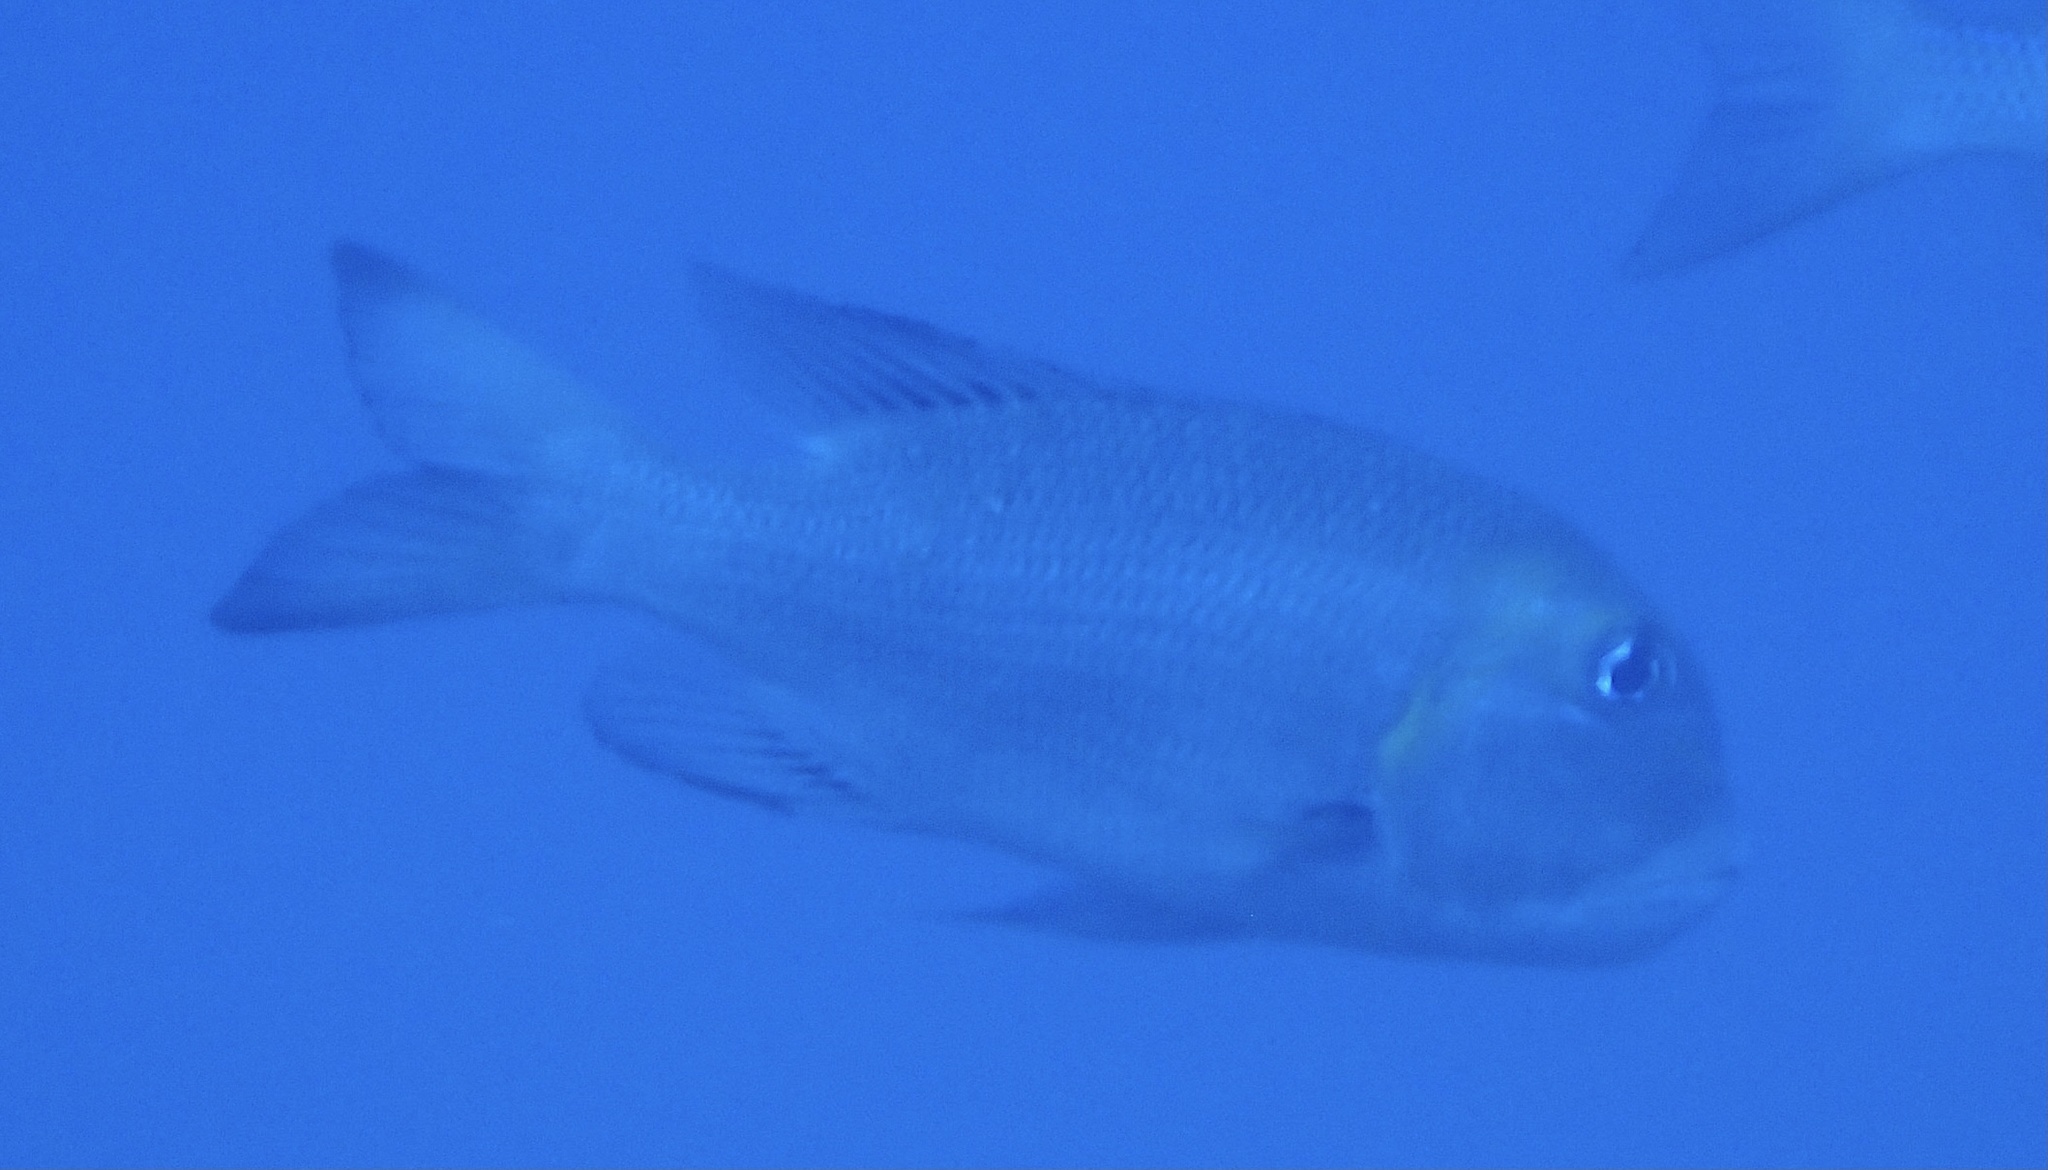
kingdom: Animalia
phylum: Chordata
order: Perciformes
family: Lethrinidae
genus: Monotaxis
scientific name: Monotaxis grandoculis
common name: Bigeye emperor
